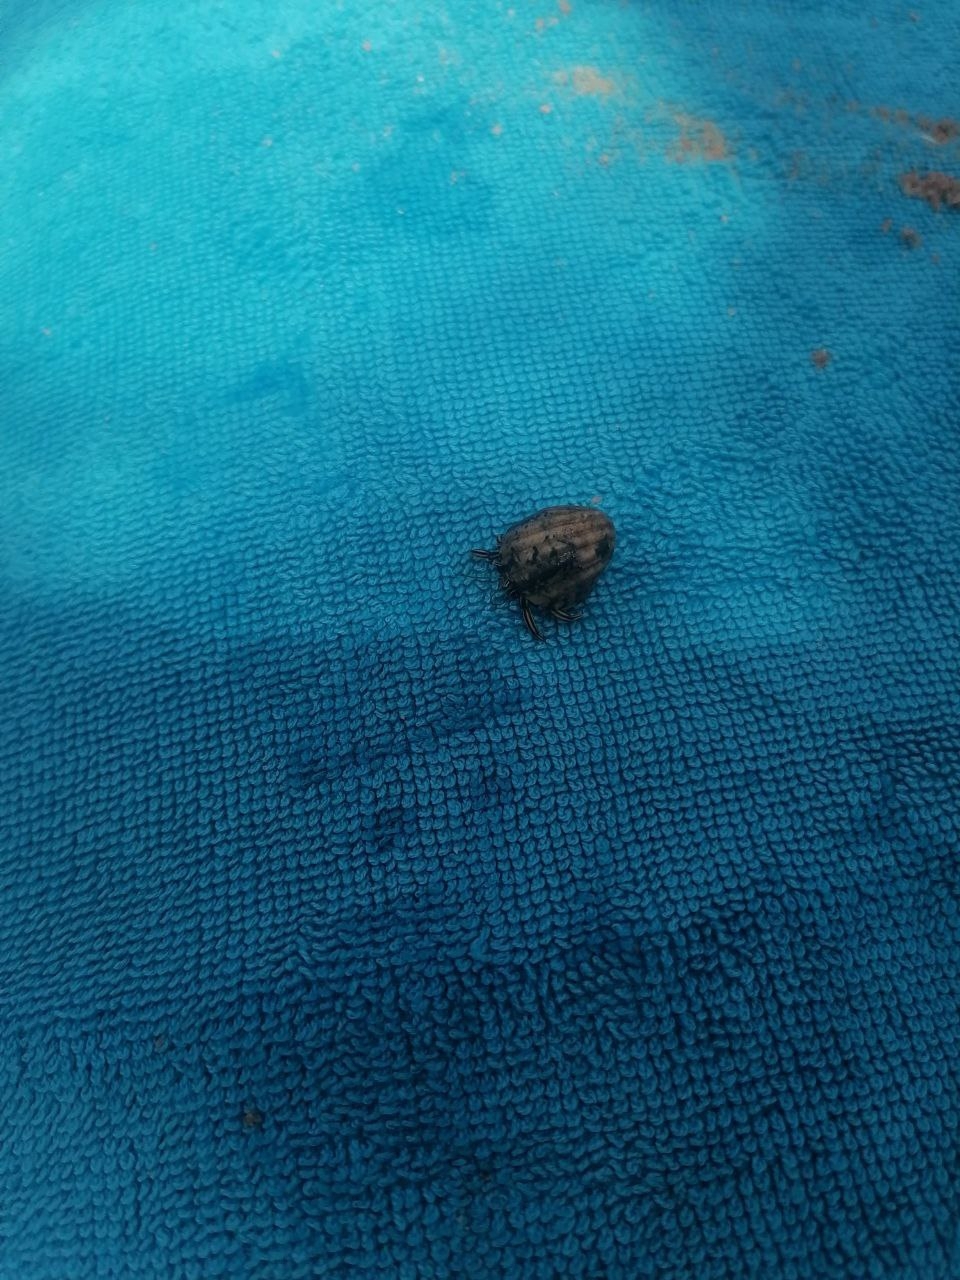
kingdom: Animalia
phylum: Arthropoda
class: Malacostraca
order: Decapoda
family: Diogenidae
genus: Clibanarius
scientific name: Clibanarius signatus
